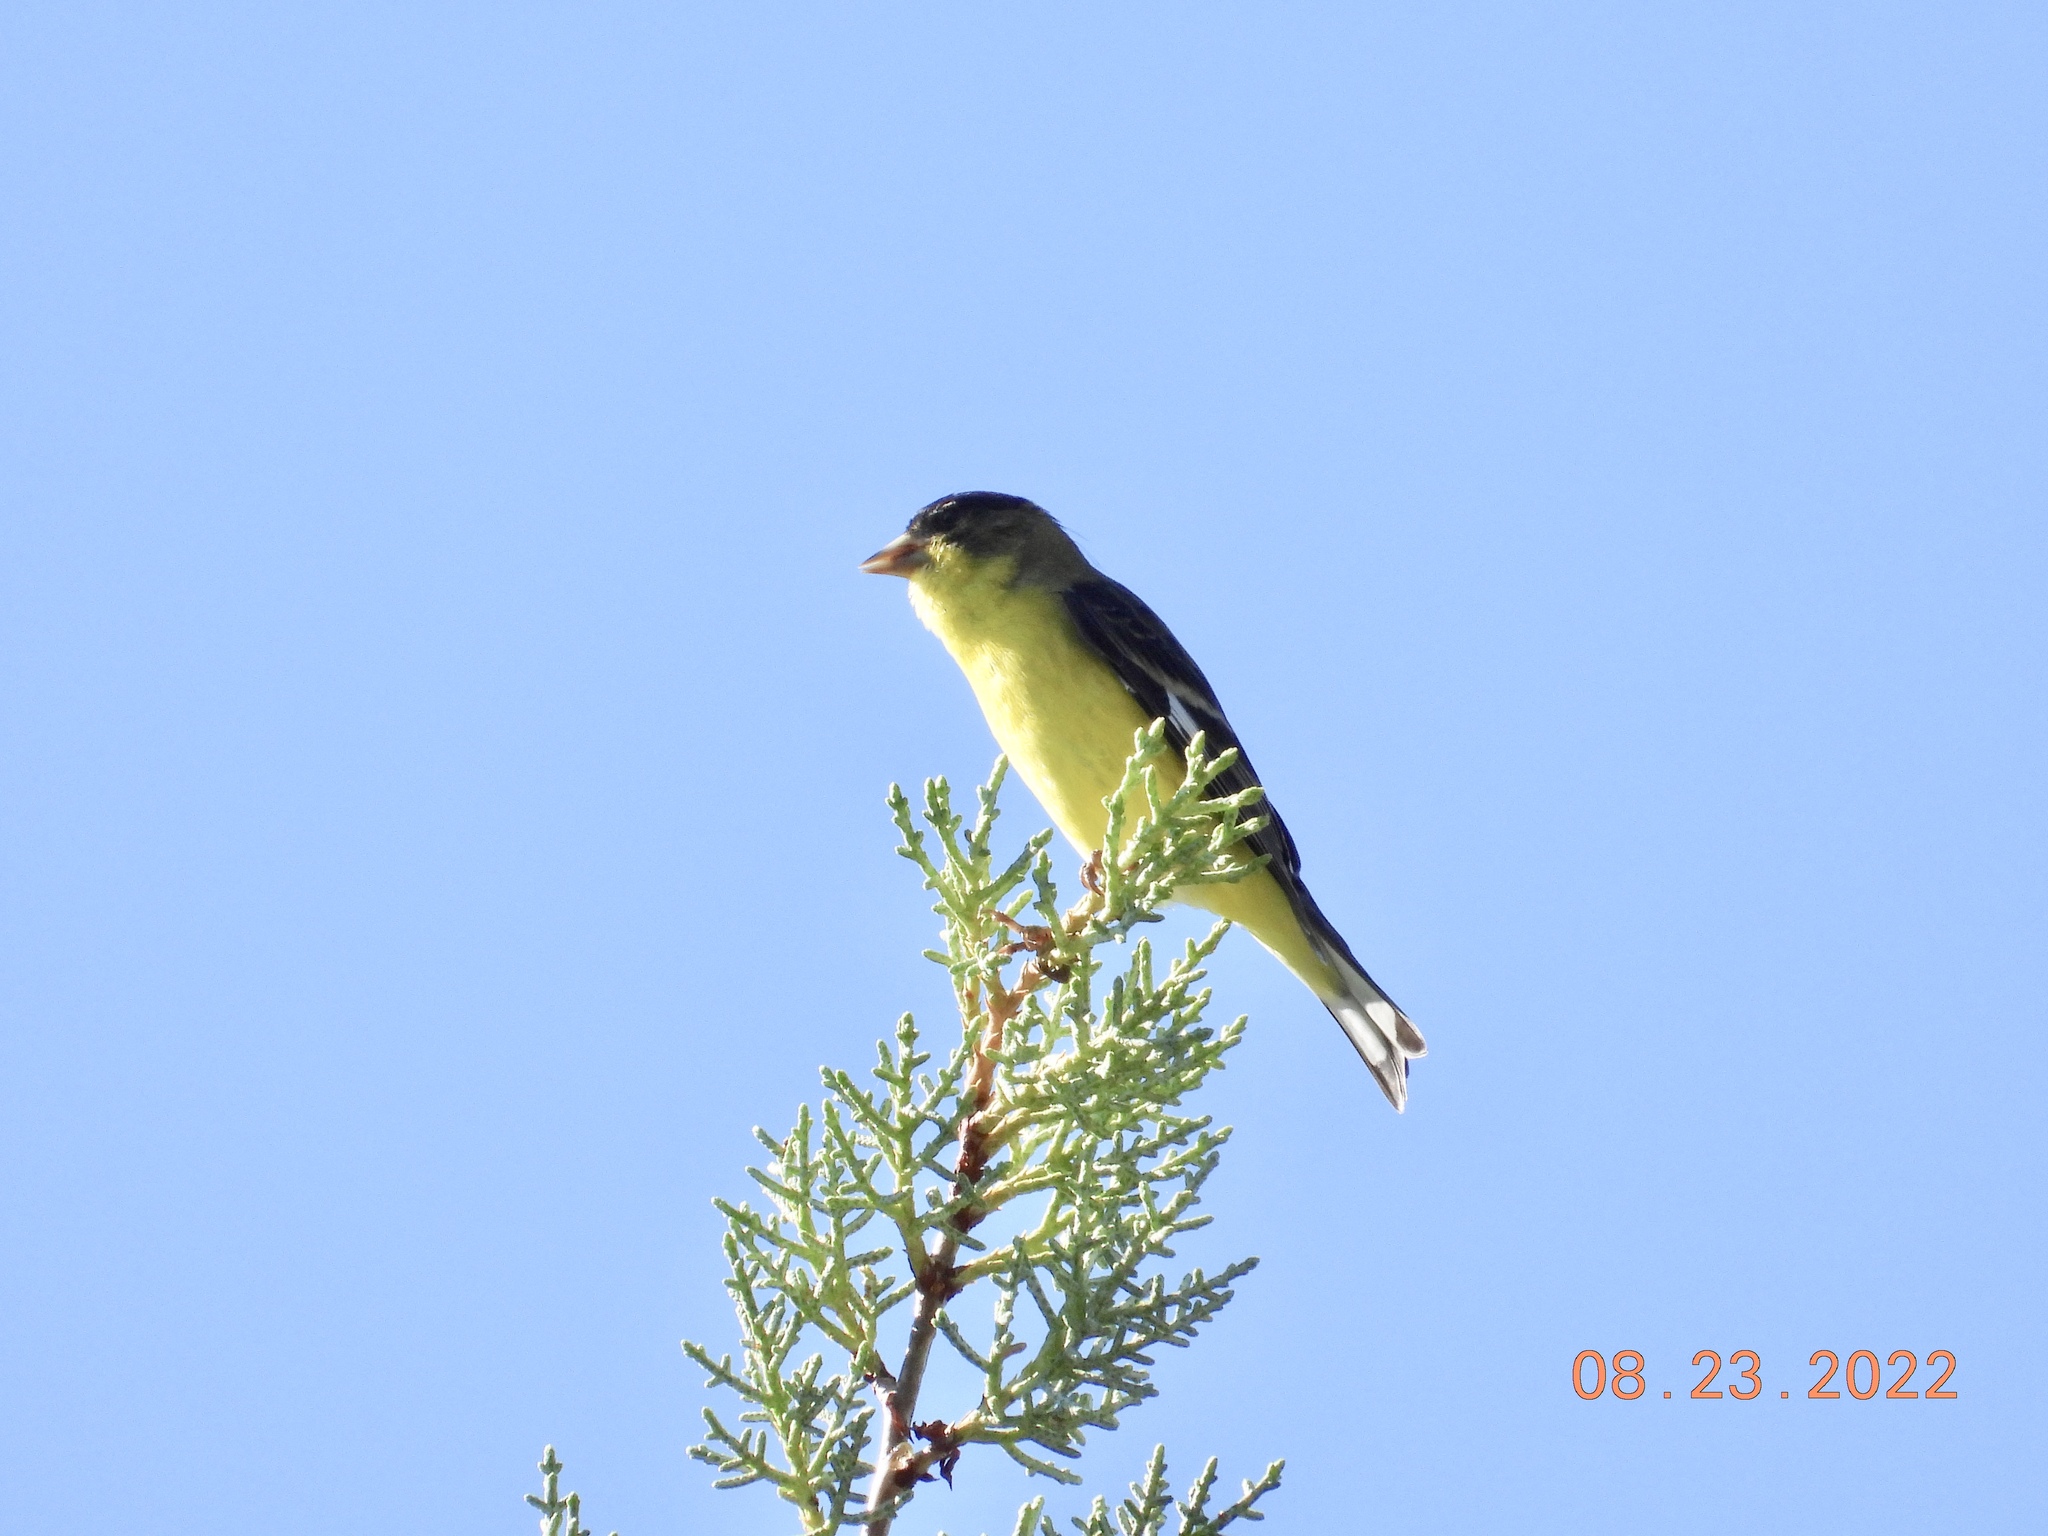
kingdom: Animalia
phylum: Chordata
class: Aves
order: Passeriformes
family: Fringillidae
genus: Spinus
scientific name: Spinus psaltria
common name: Lesser goldfinch
